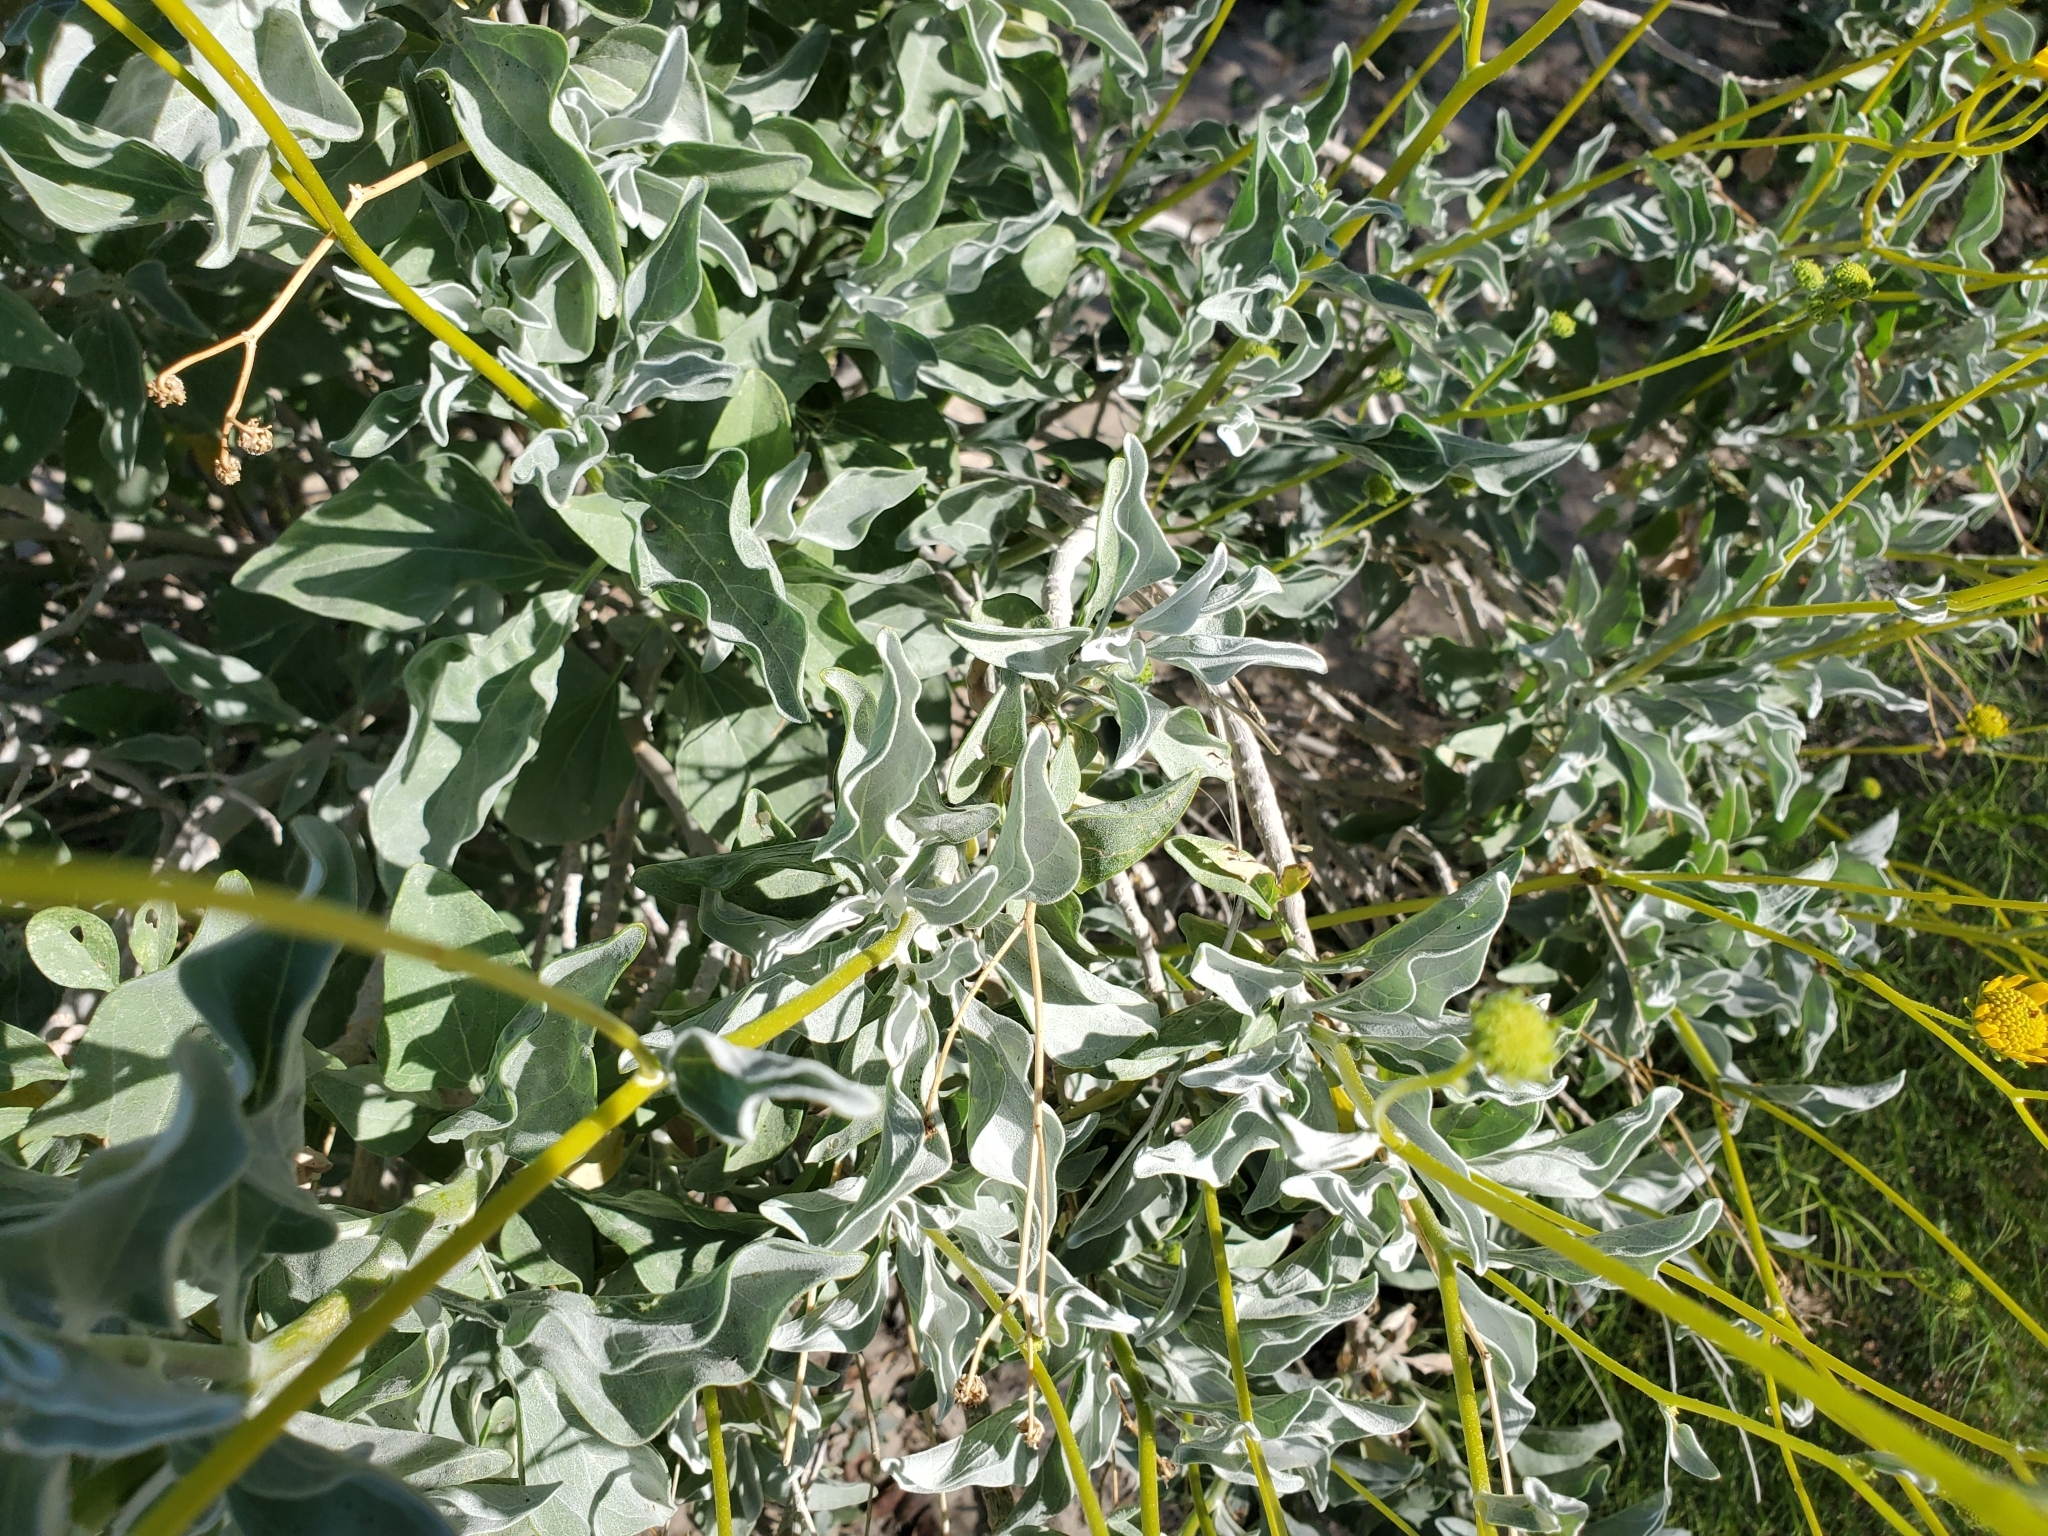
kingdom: Plantae
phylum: Tracheophyta
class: Magnoliopsida
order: Asterales
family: Asteraceae
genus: Encelia
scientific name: Encelia farinosa
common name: Brittlebush
